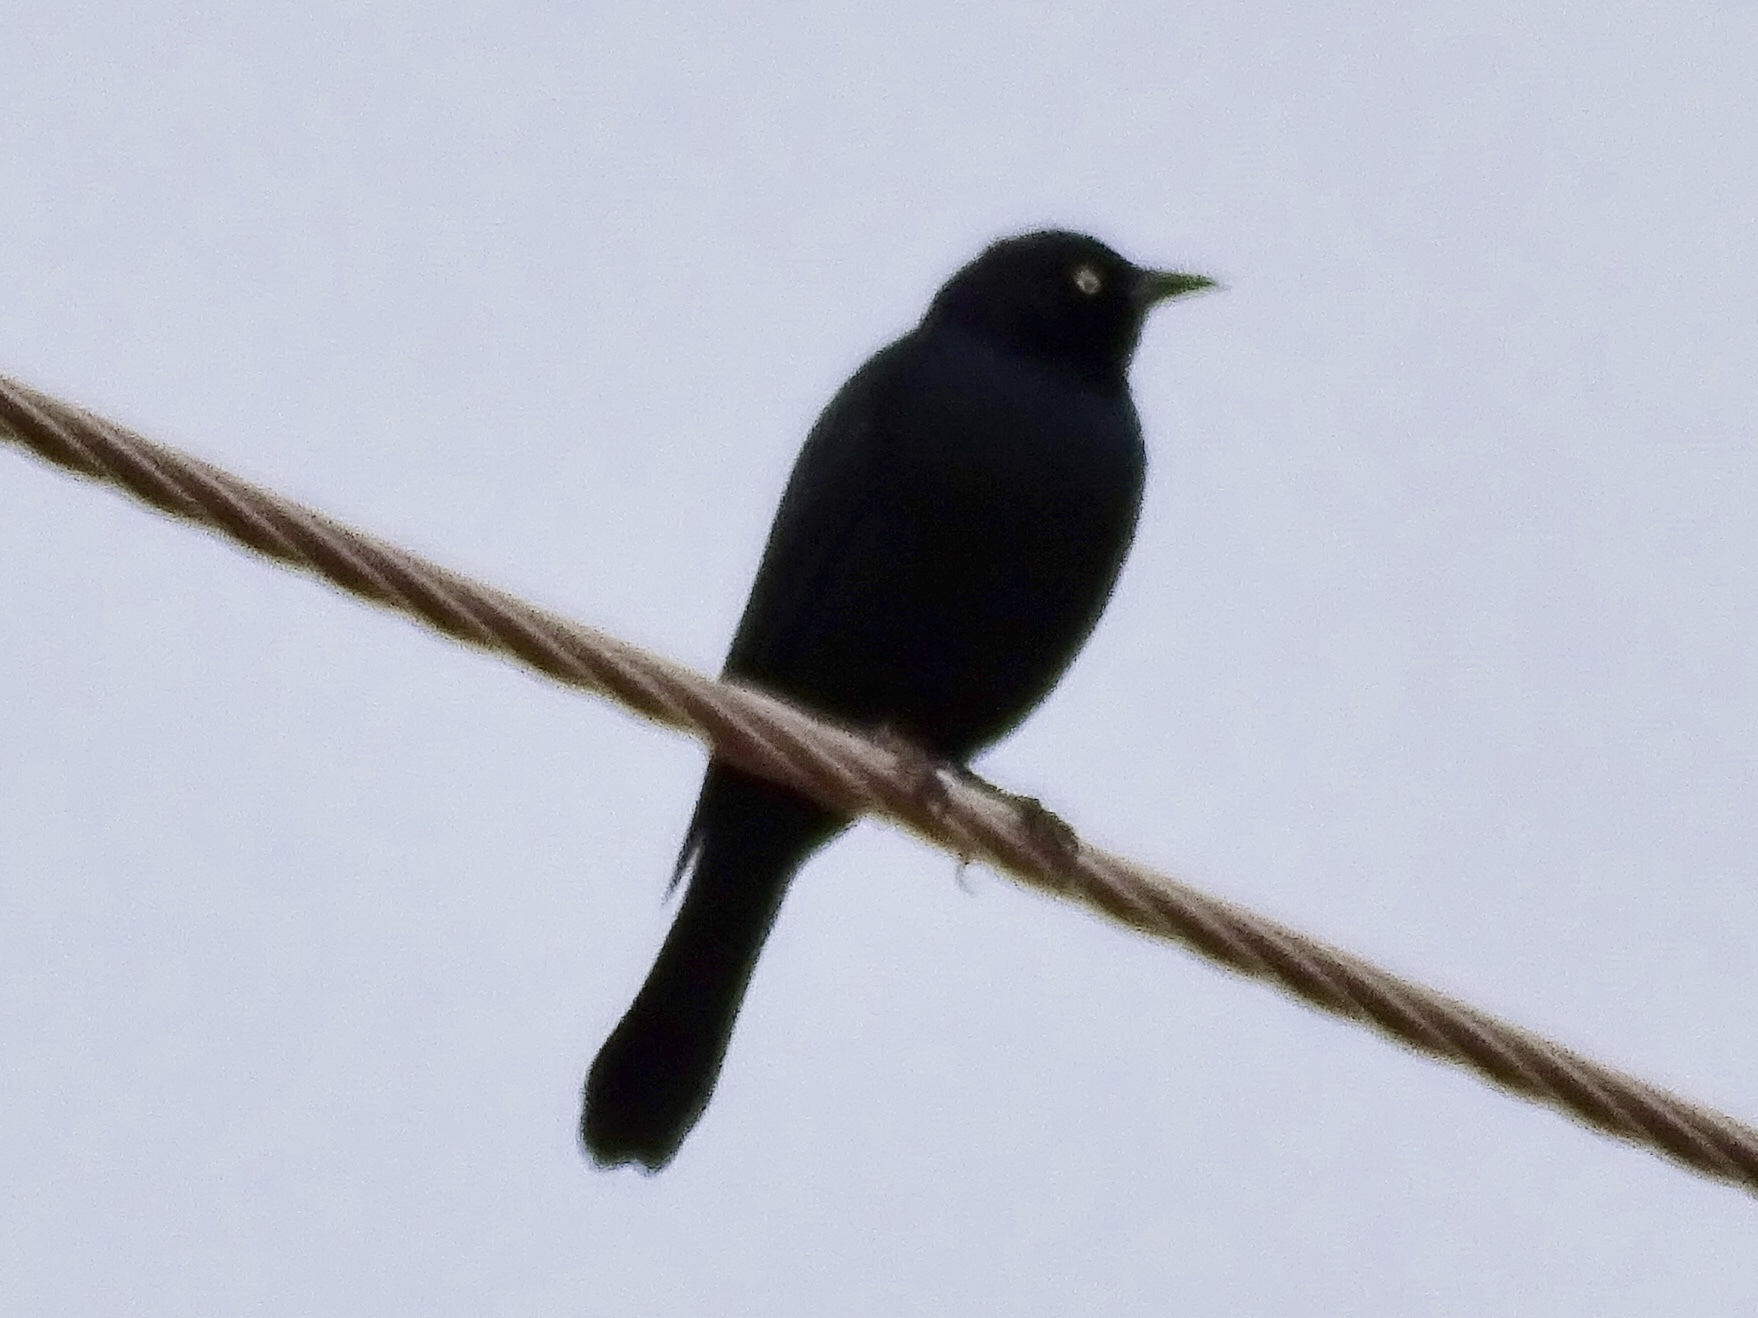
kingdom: Animalia
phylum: Chordata
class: Aves
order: Passeriformes
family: Icteridae
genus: Euphagus
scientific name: Euphagus cyanocephalus
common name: Brewer's blackbird
